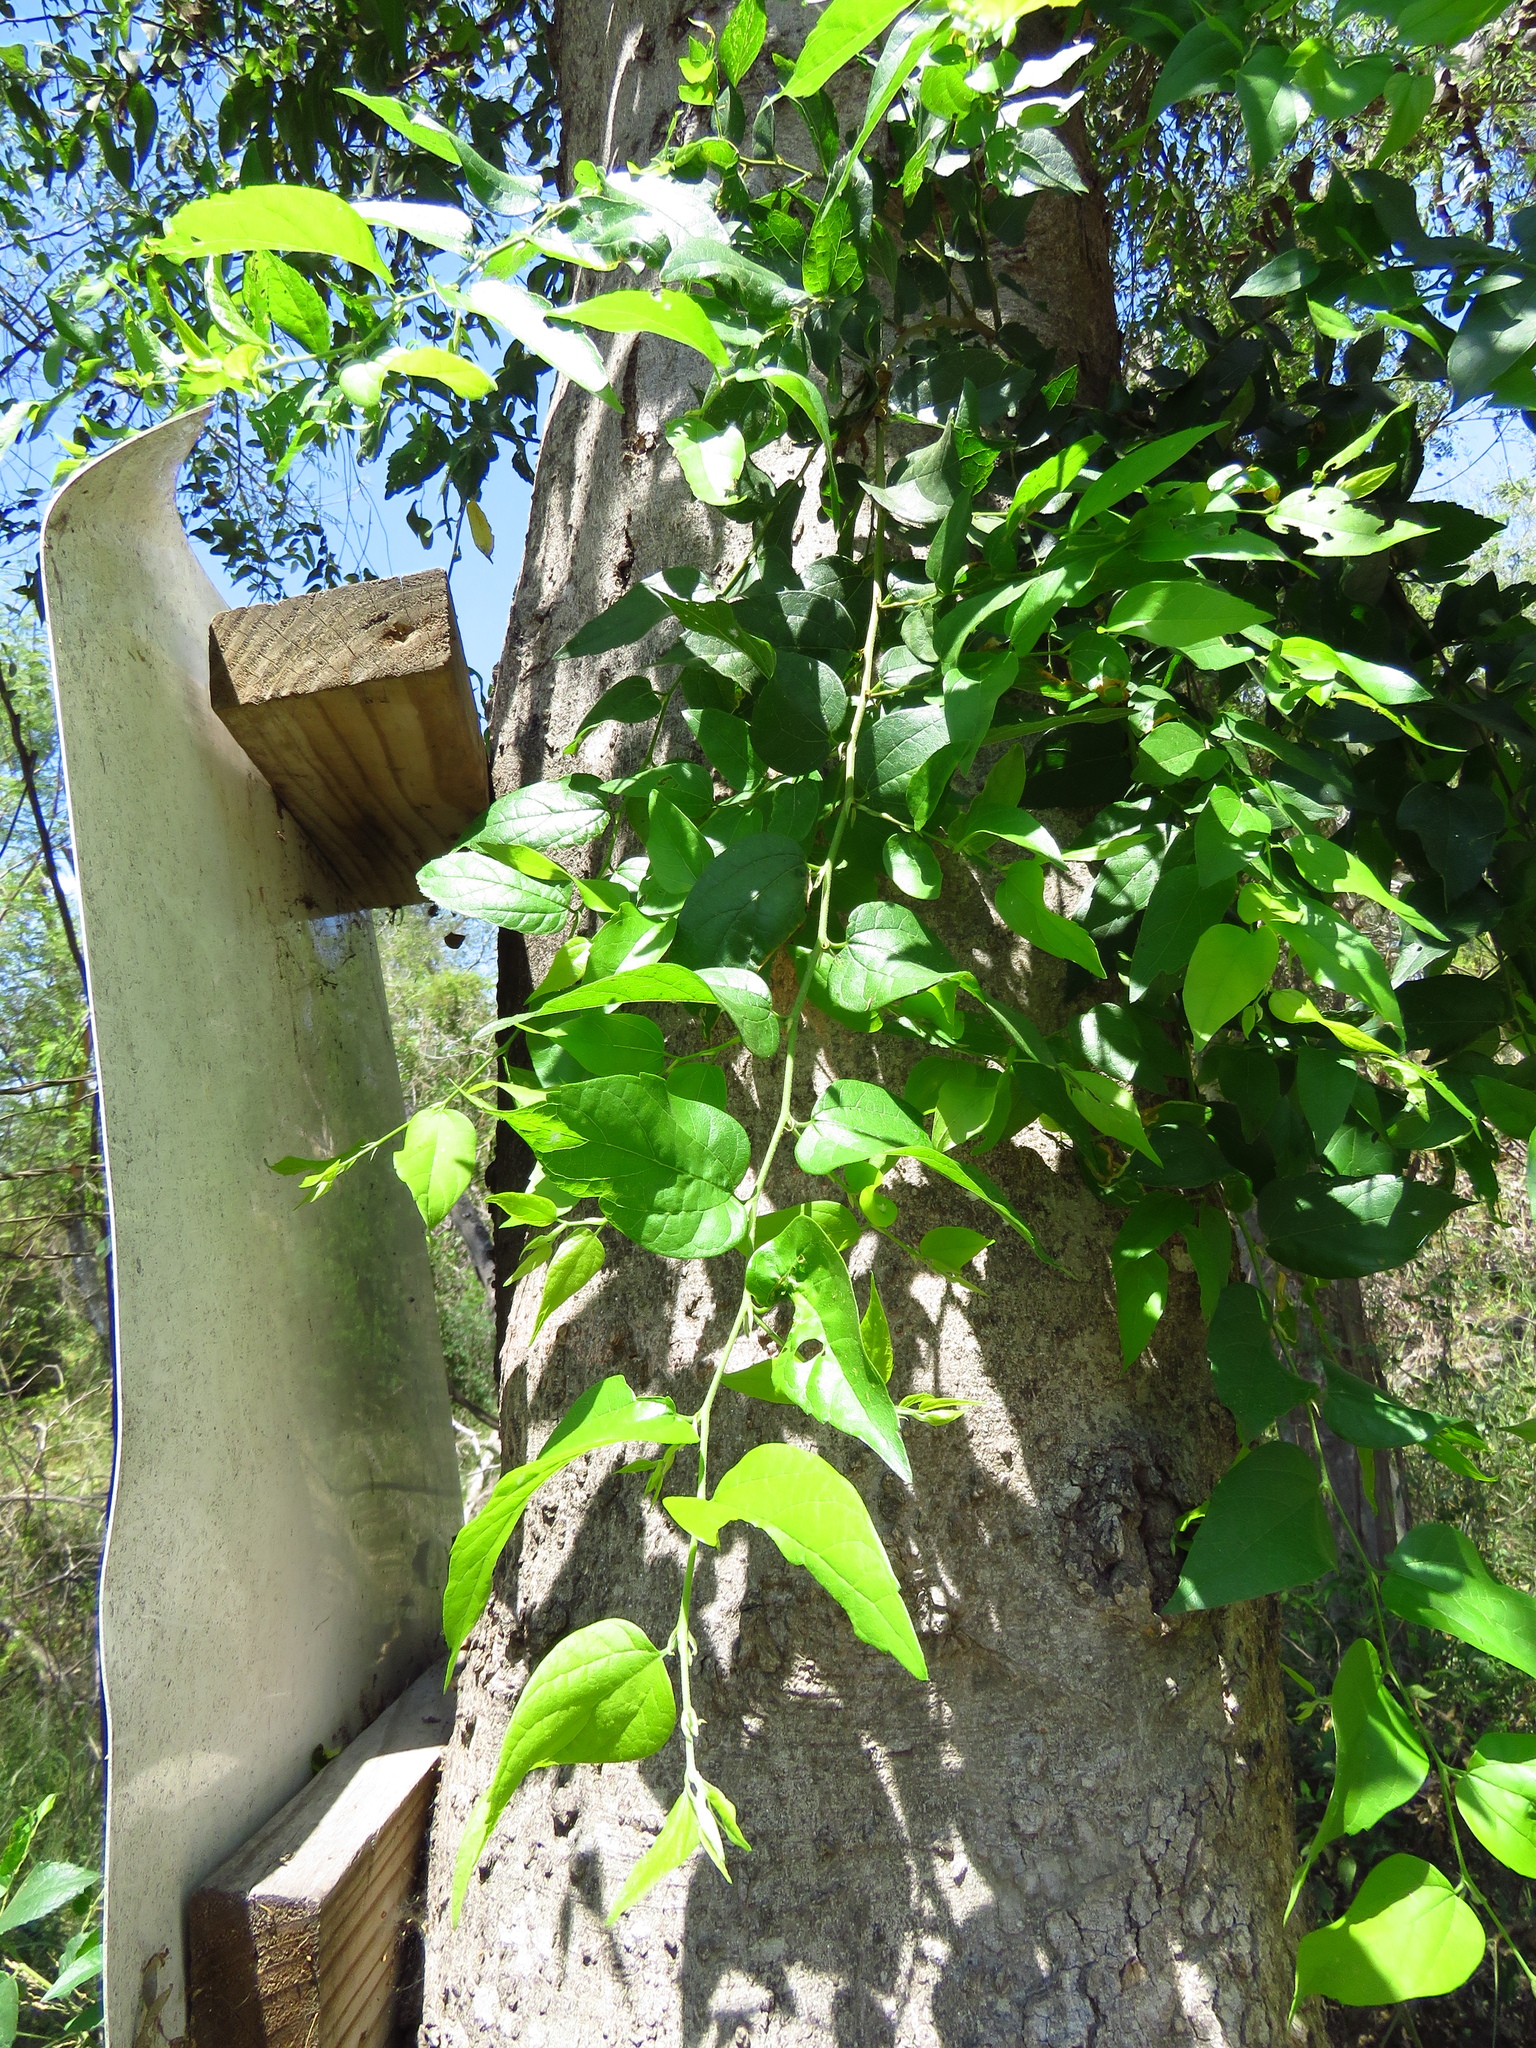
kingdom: Plantae
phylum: Tracheophyta
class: Magnoliopsida
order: Rosales
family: Cannabaceae
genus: Celtis
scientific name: Celtis laevigata
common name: Sugarberry
